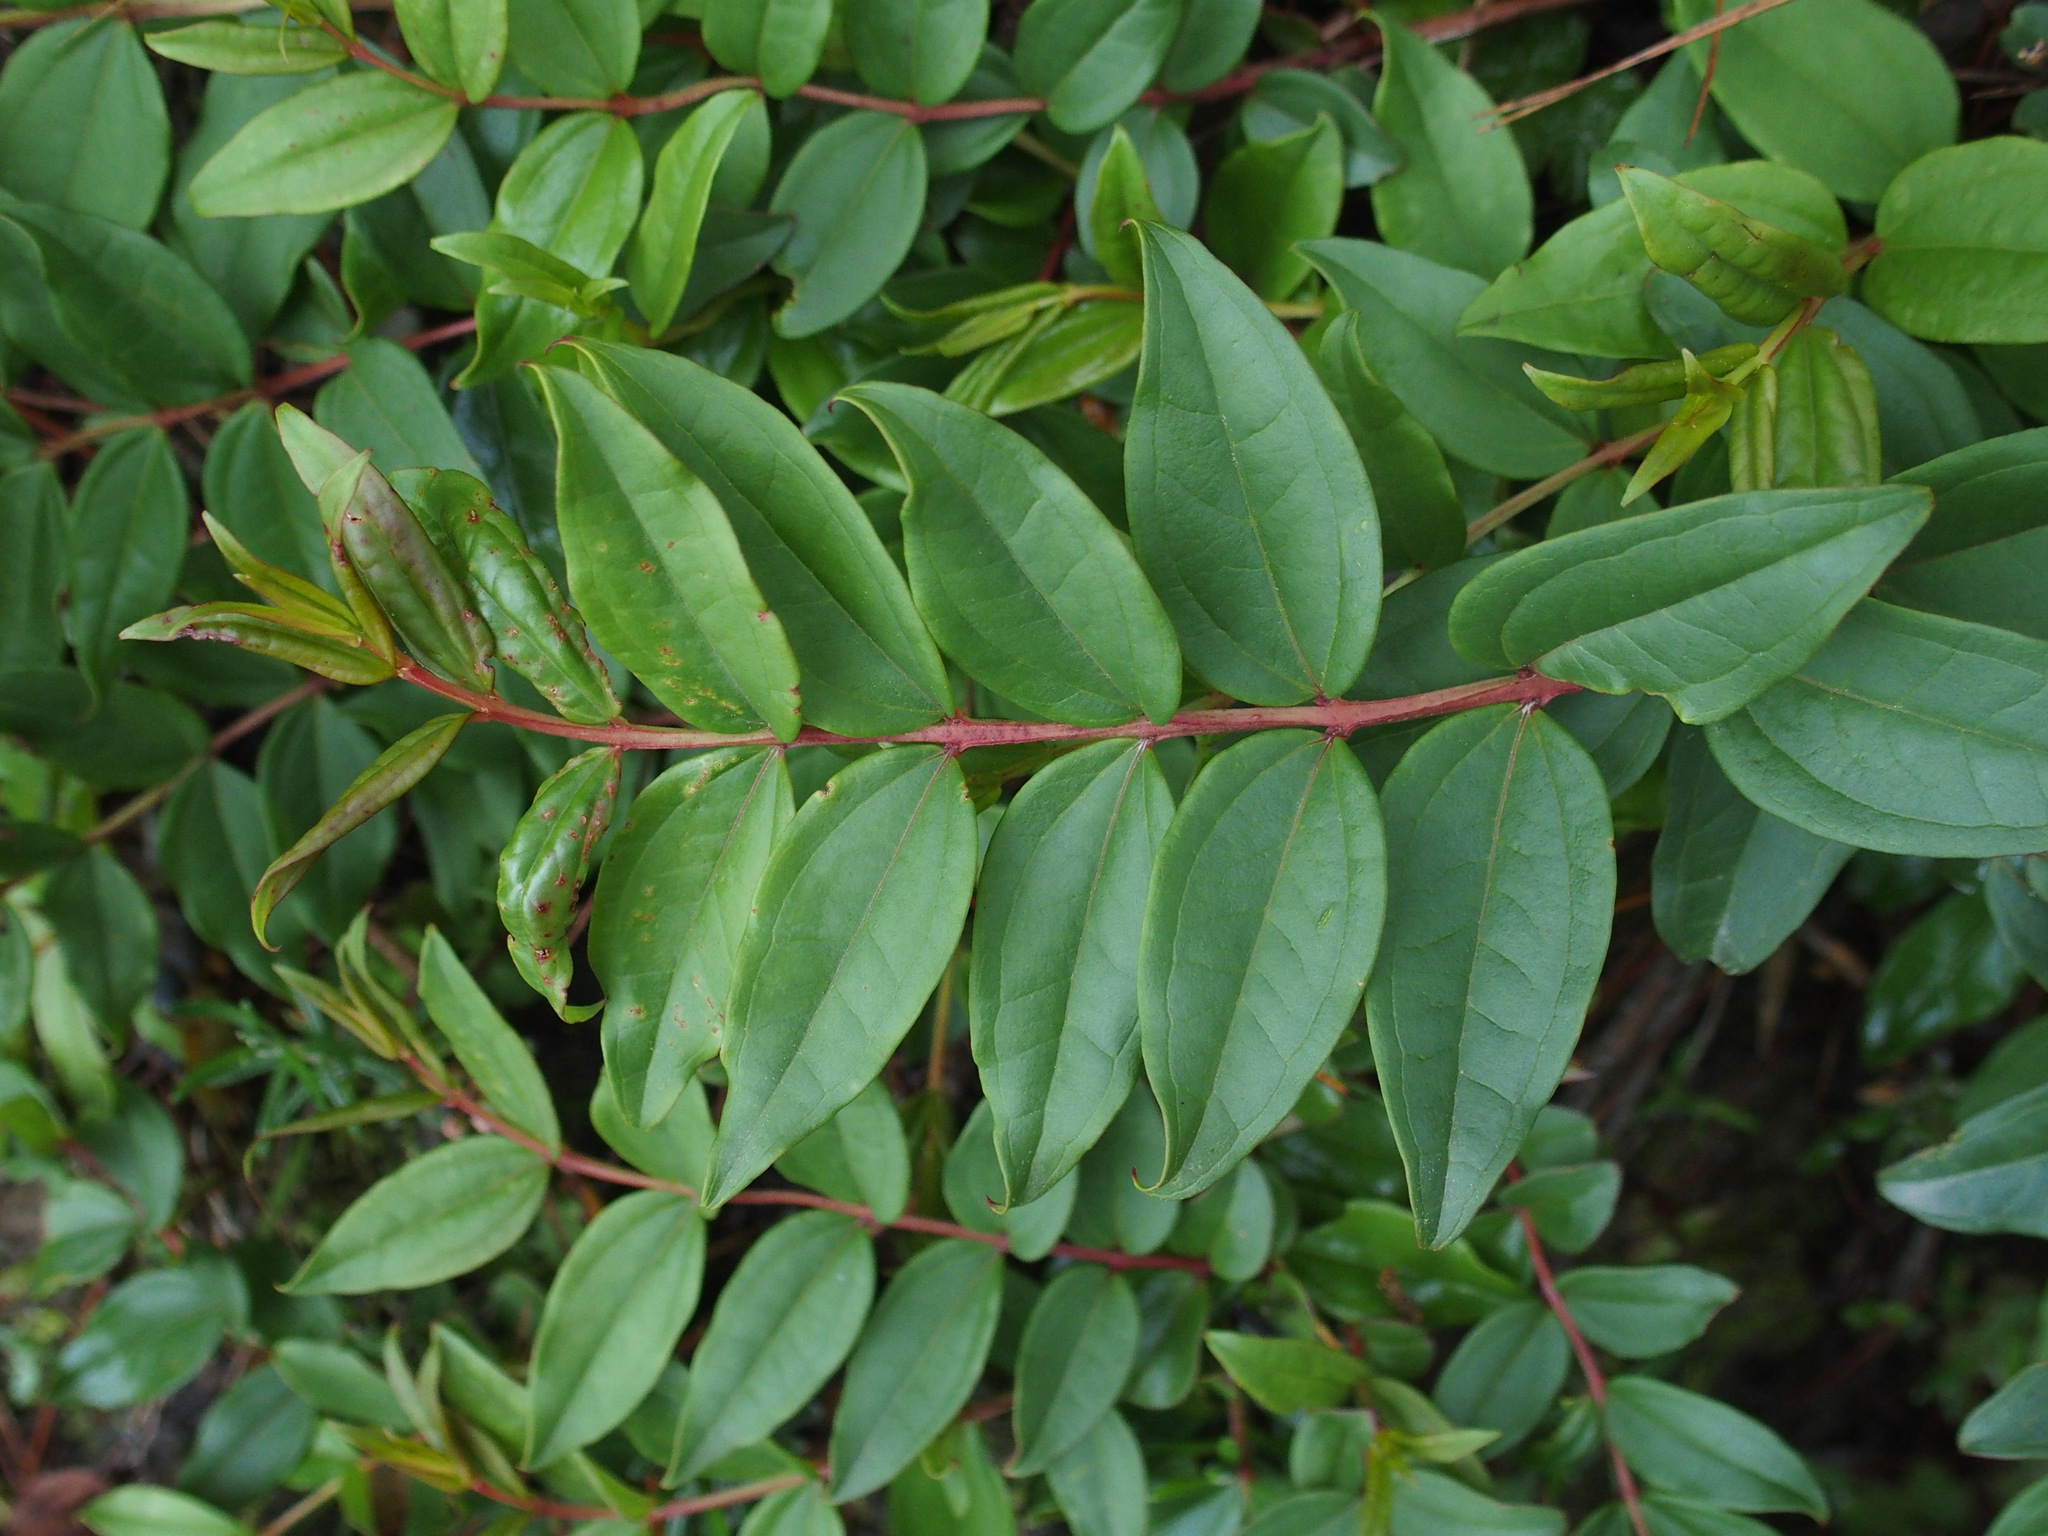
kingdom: Plantae
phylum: Tracheophyta
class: Magnoliopsida
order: Cucurbitales
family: Coriariaceae
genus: Coriaria
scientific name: Coriaria japonica
